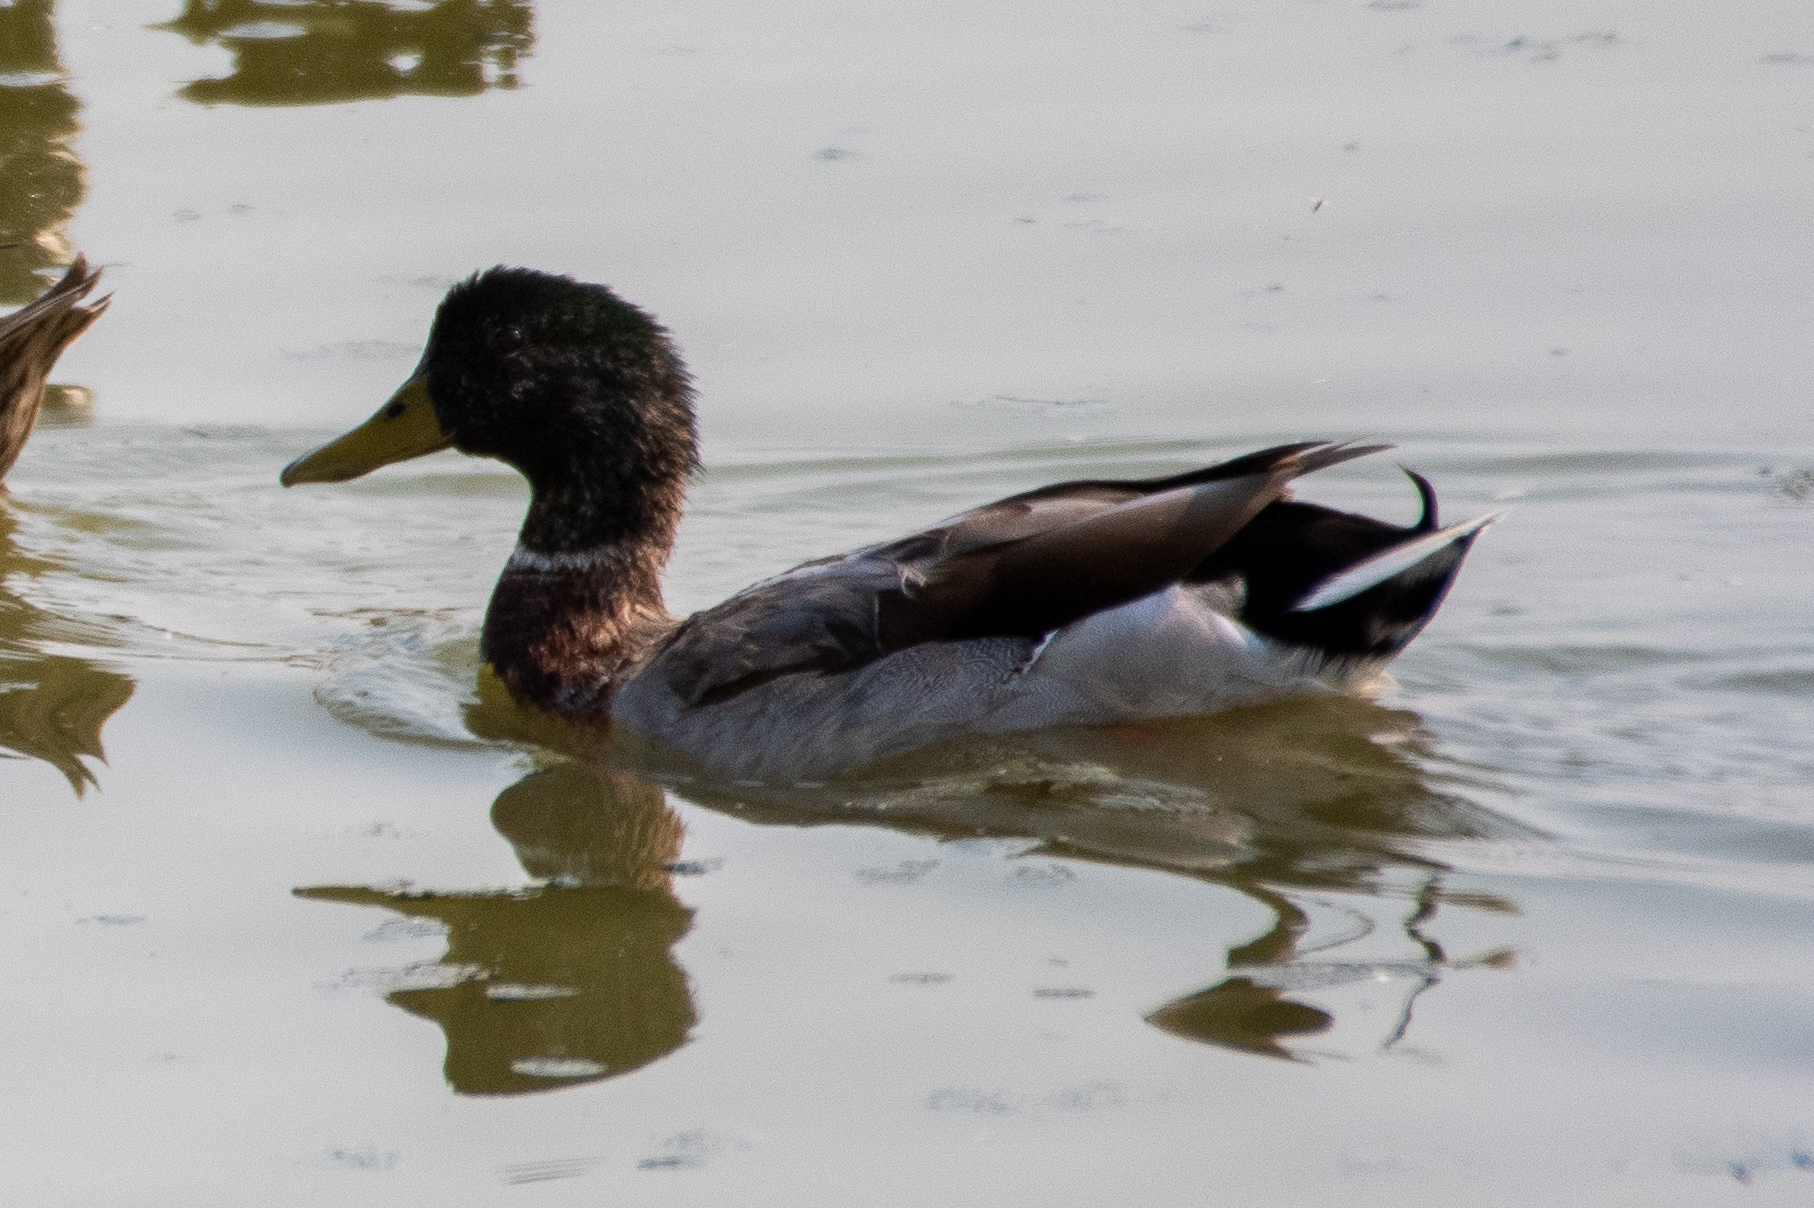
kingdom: Animalia
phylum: Chordata
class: Aves
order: Anseriformes
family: Anatidae
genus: Anas
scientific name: Anas platyrhynchos
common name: Mallard
